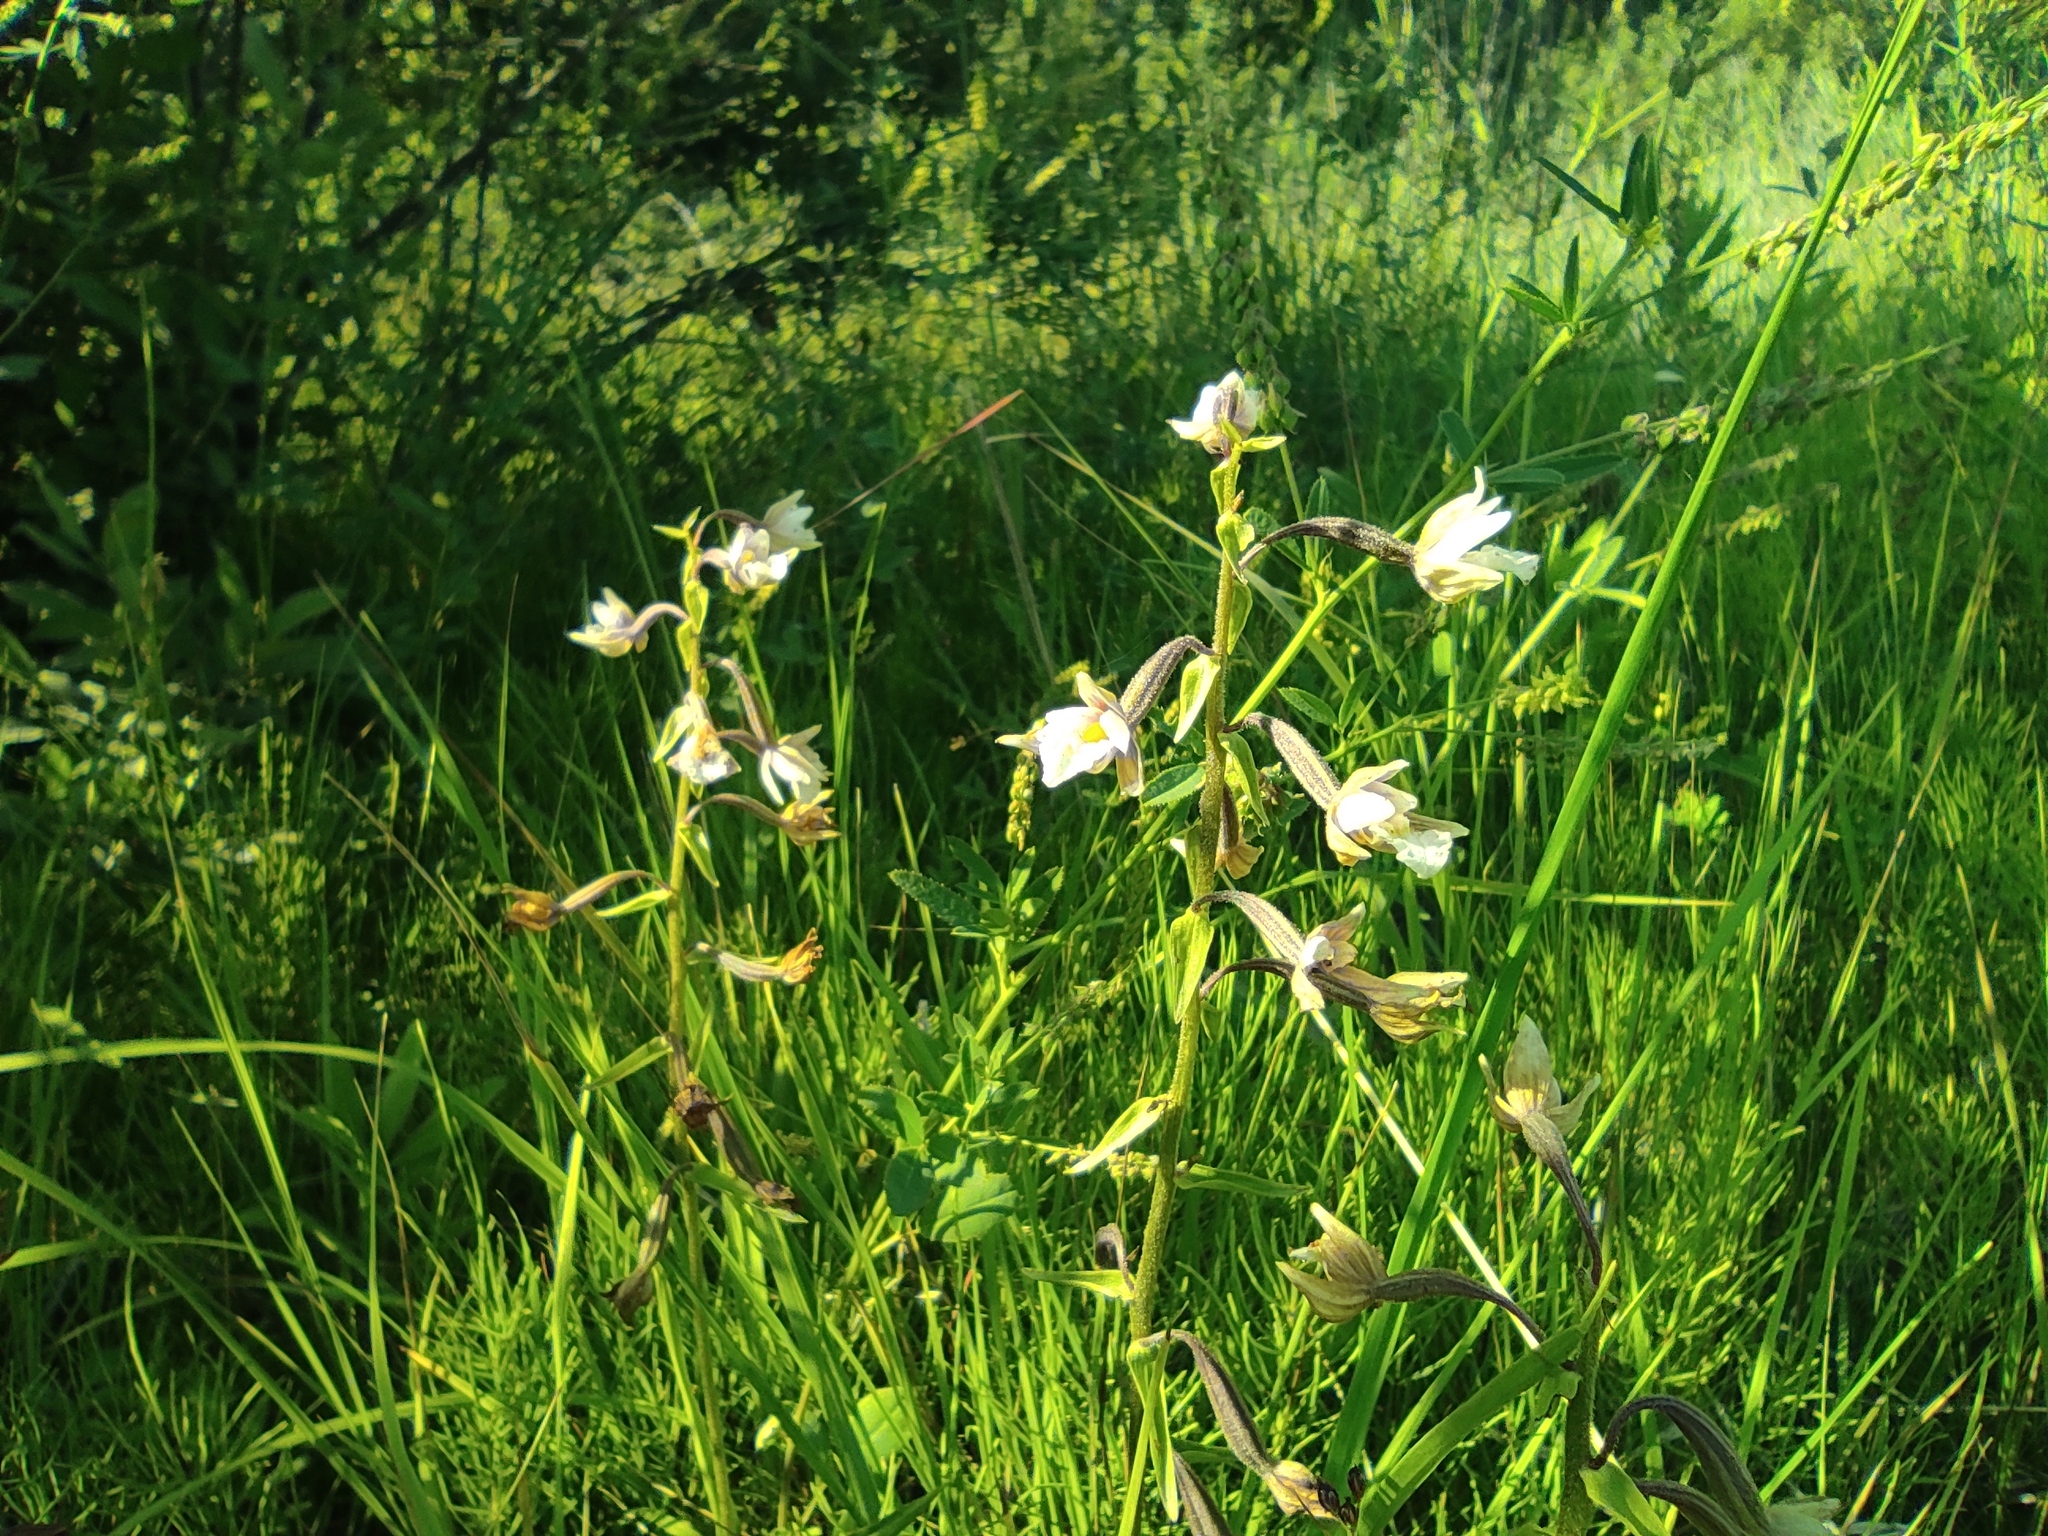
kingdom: Plantae
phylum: Tracheophyta
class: Liliopsida
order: Asparagales
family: Orchidaceae
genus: Epipactis
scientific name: Epipactis palustris
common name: Marsh helleborine
